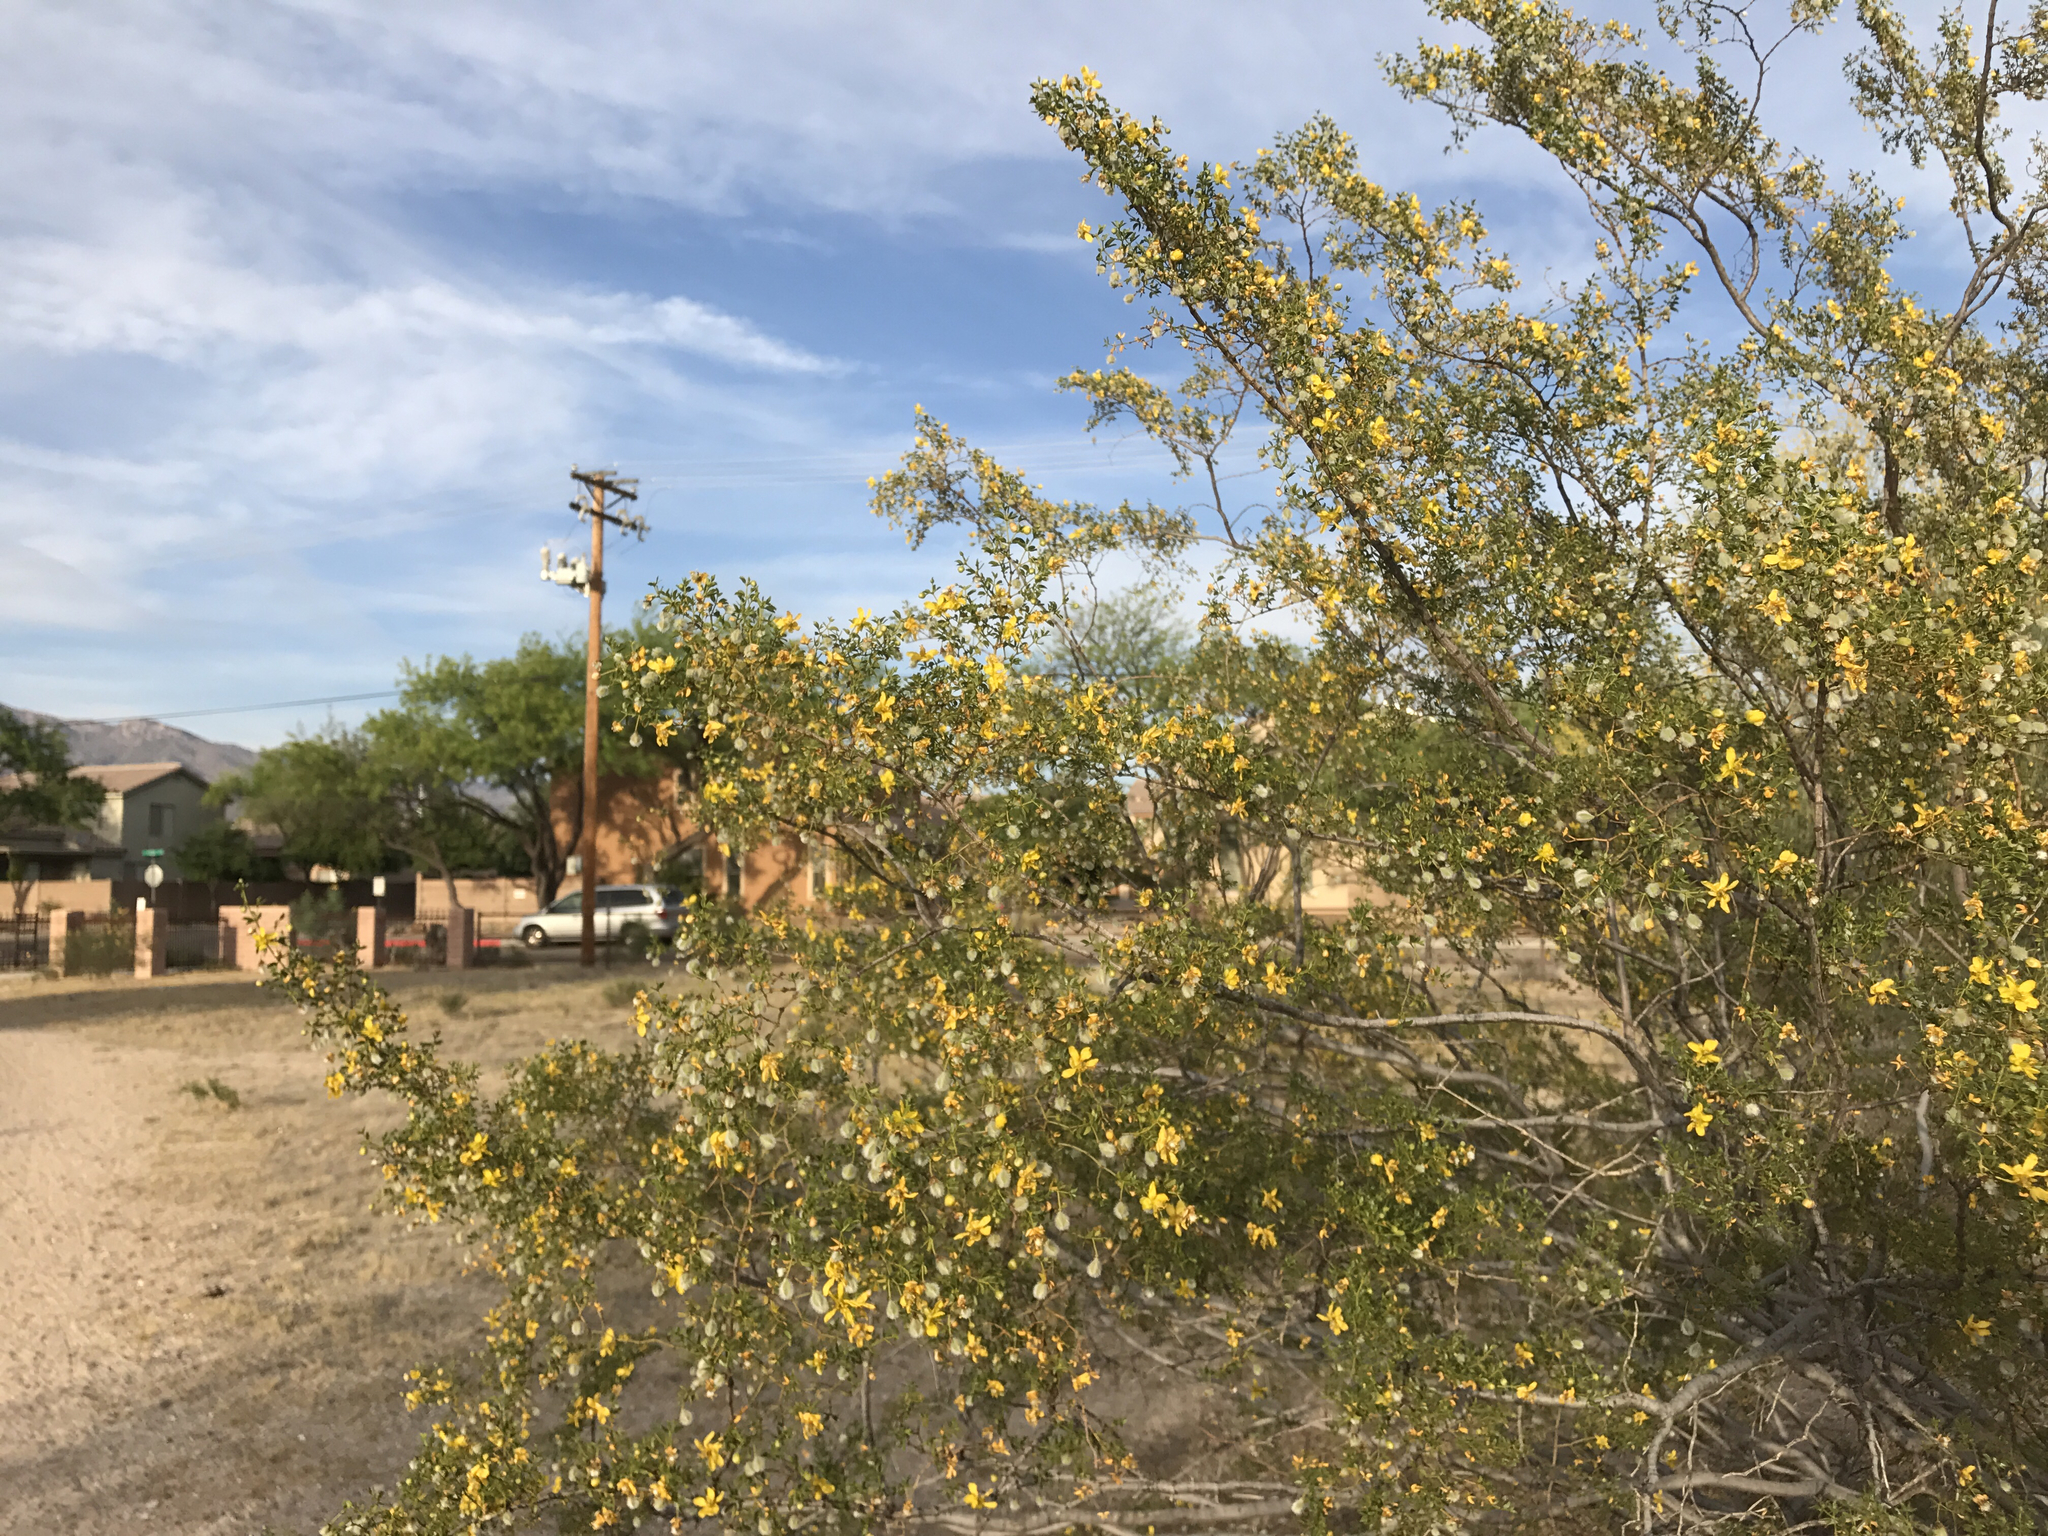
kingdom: Plantae
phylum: Tracheophyta
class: Magnoliopsida
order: Zygophyllales
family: Zygophyllaceae
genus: Larrea
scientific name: Larrea tridentata
